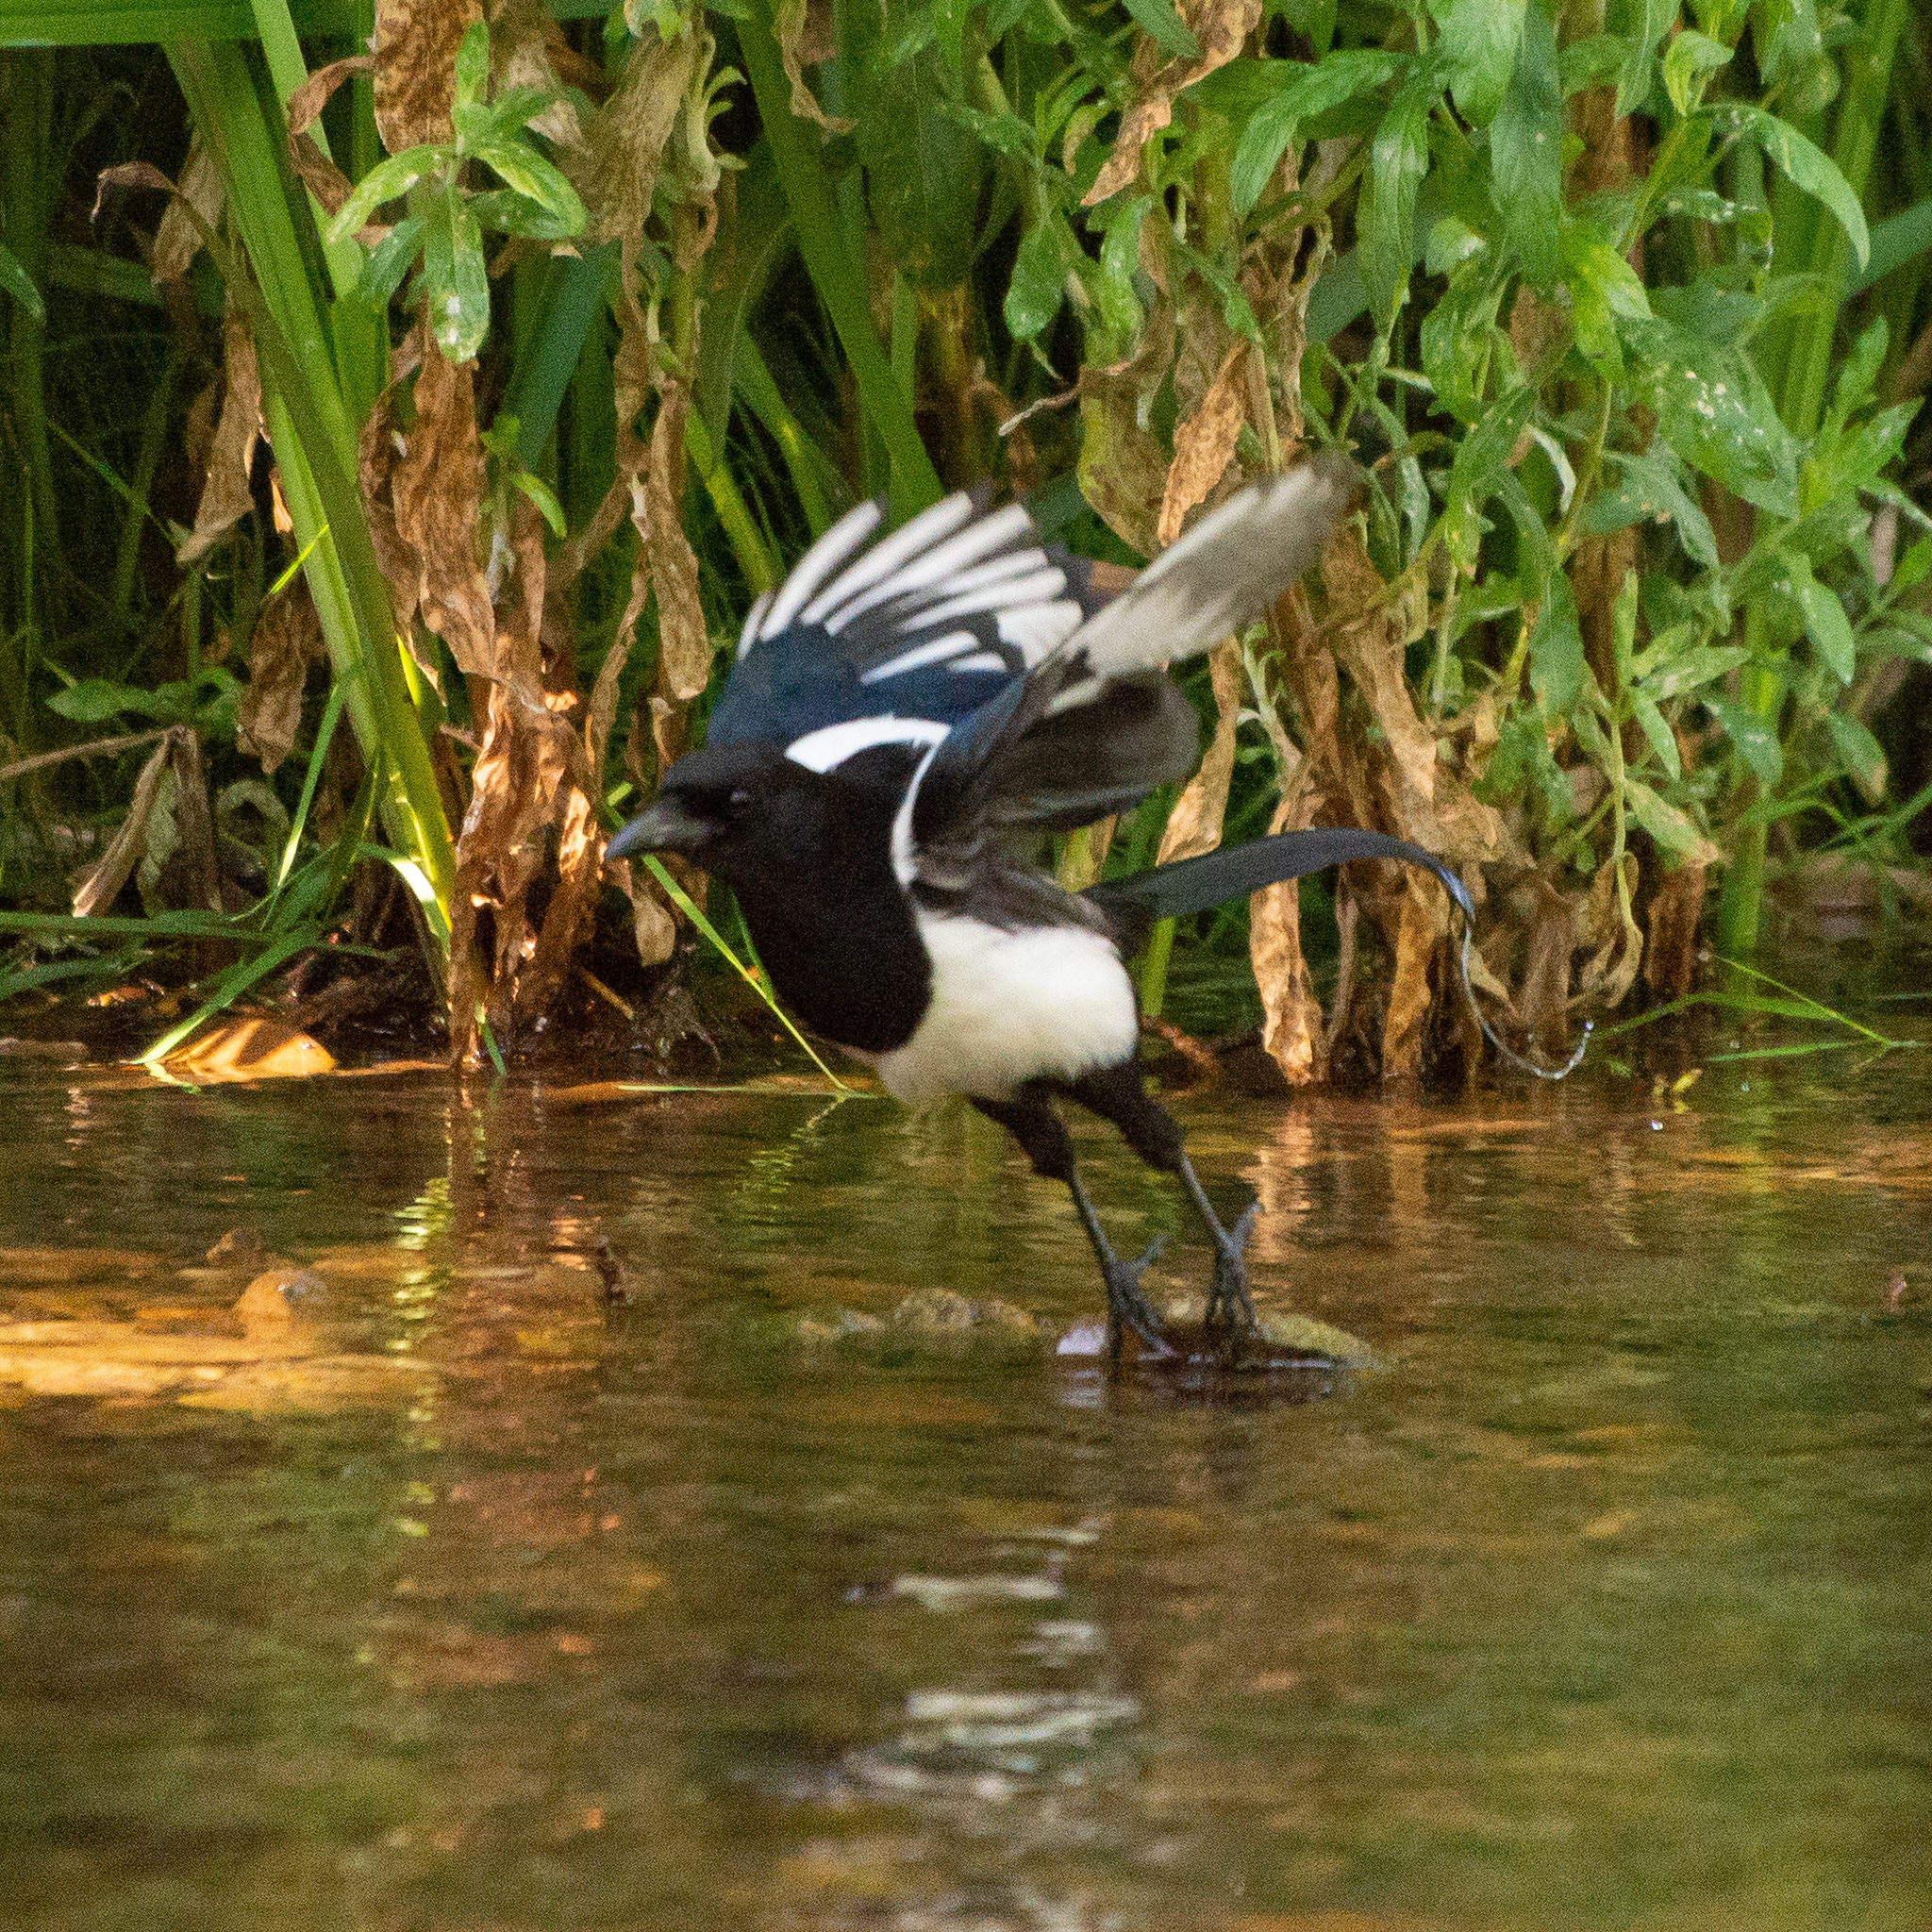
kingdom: Animalia
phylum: Chordata
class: Aves
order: Passeriformes
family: Corvidae
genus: Pica
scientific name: Pica pica
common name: Eurasian magpie
